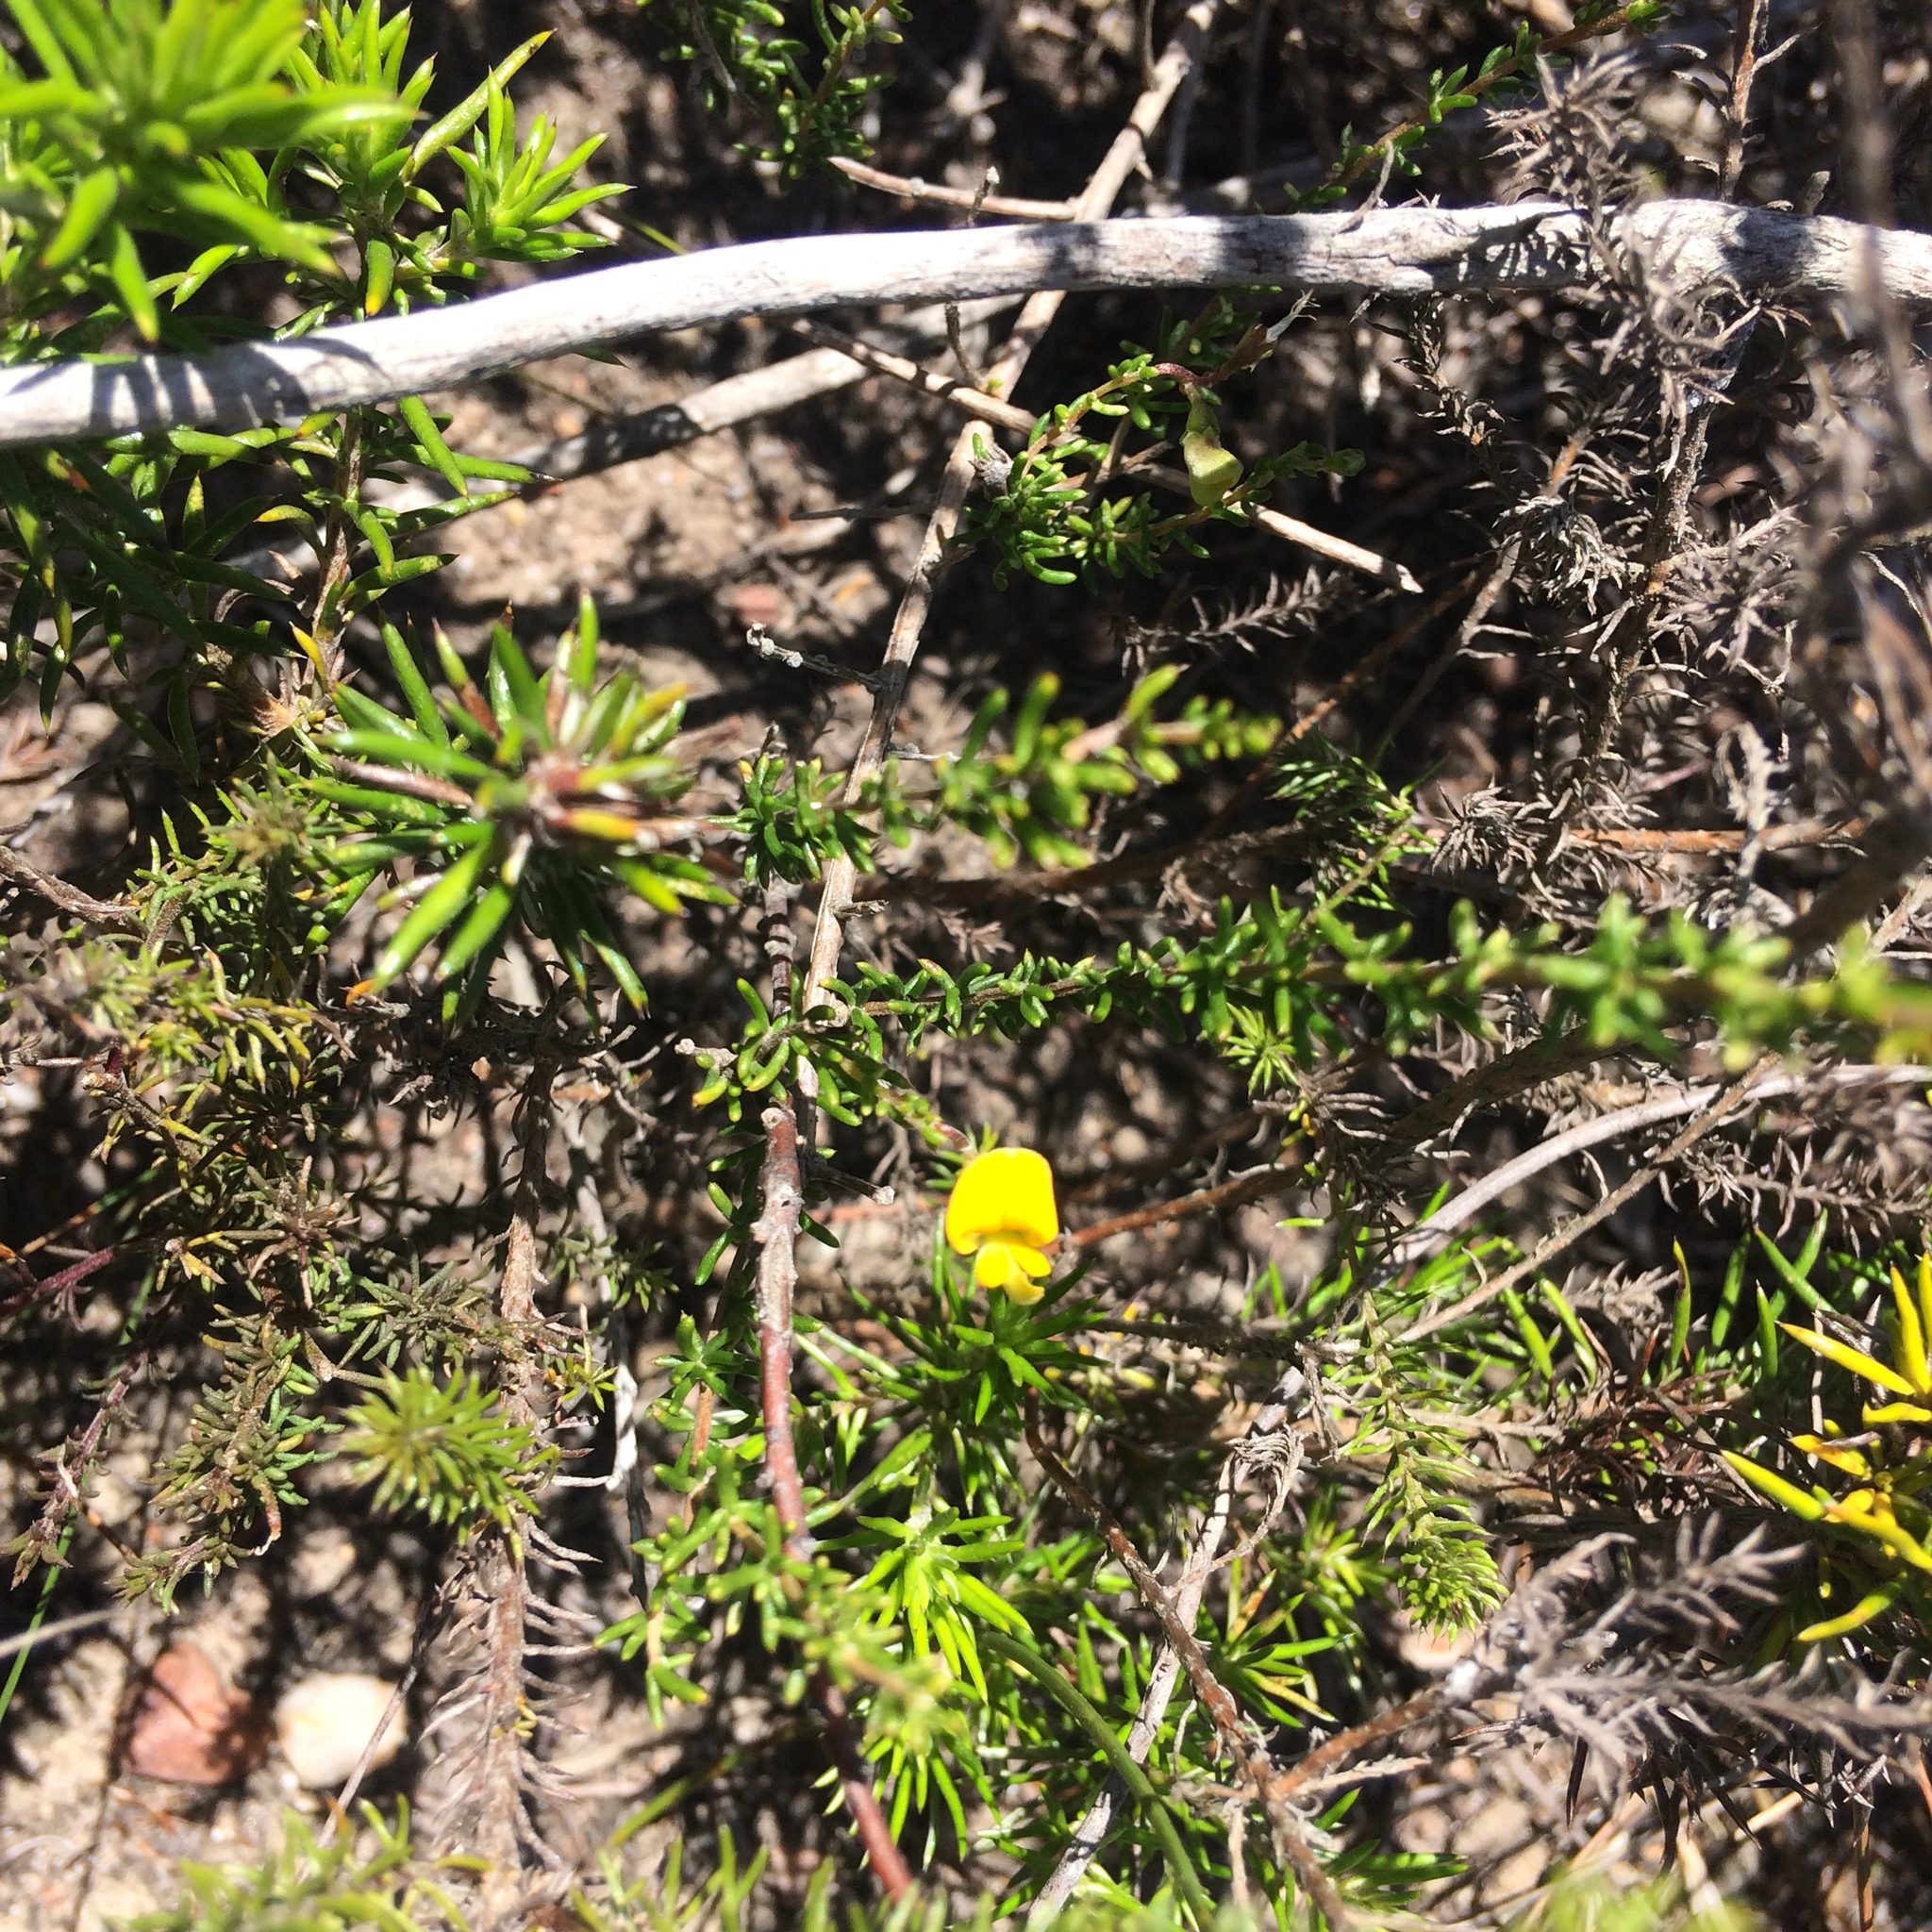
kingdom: Plantae
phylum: Tracheophyta
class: Magnoliopsida
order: Fabales
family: Fabaceae
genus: Aspalathus
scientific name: Aspalathus biflora
